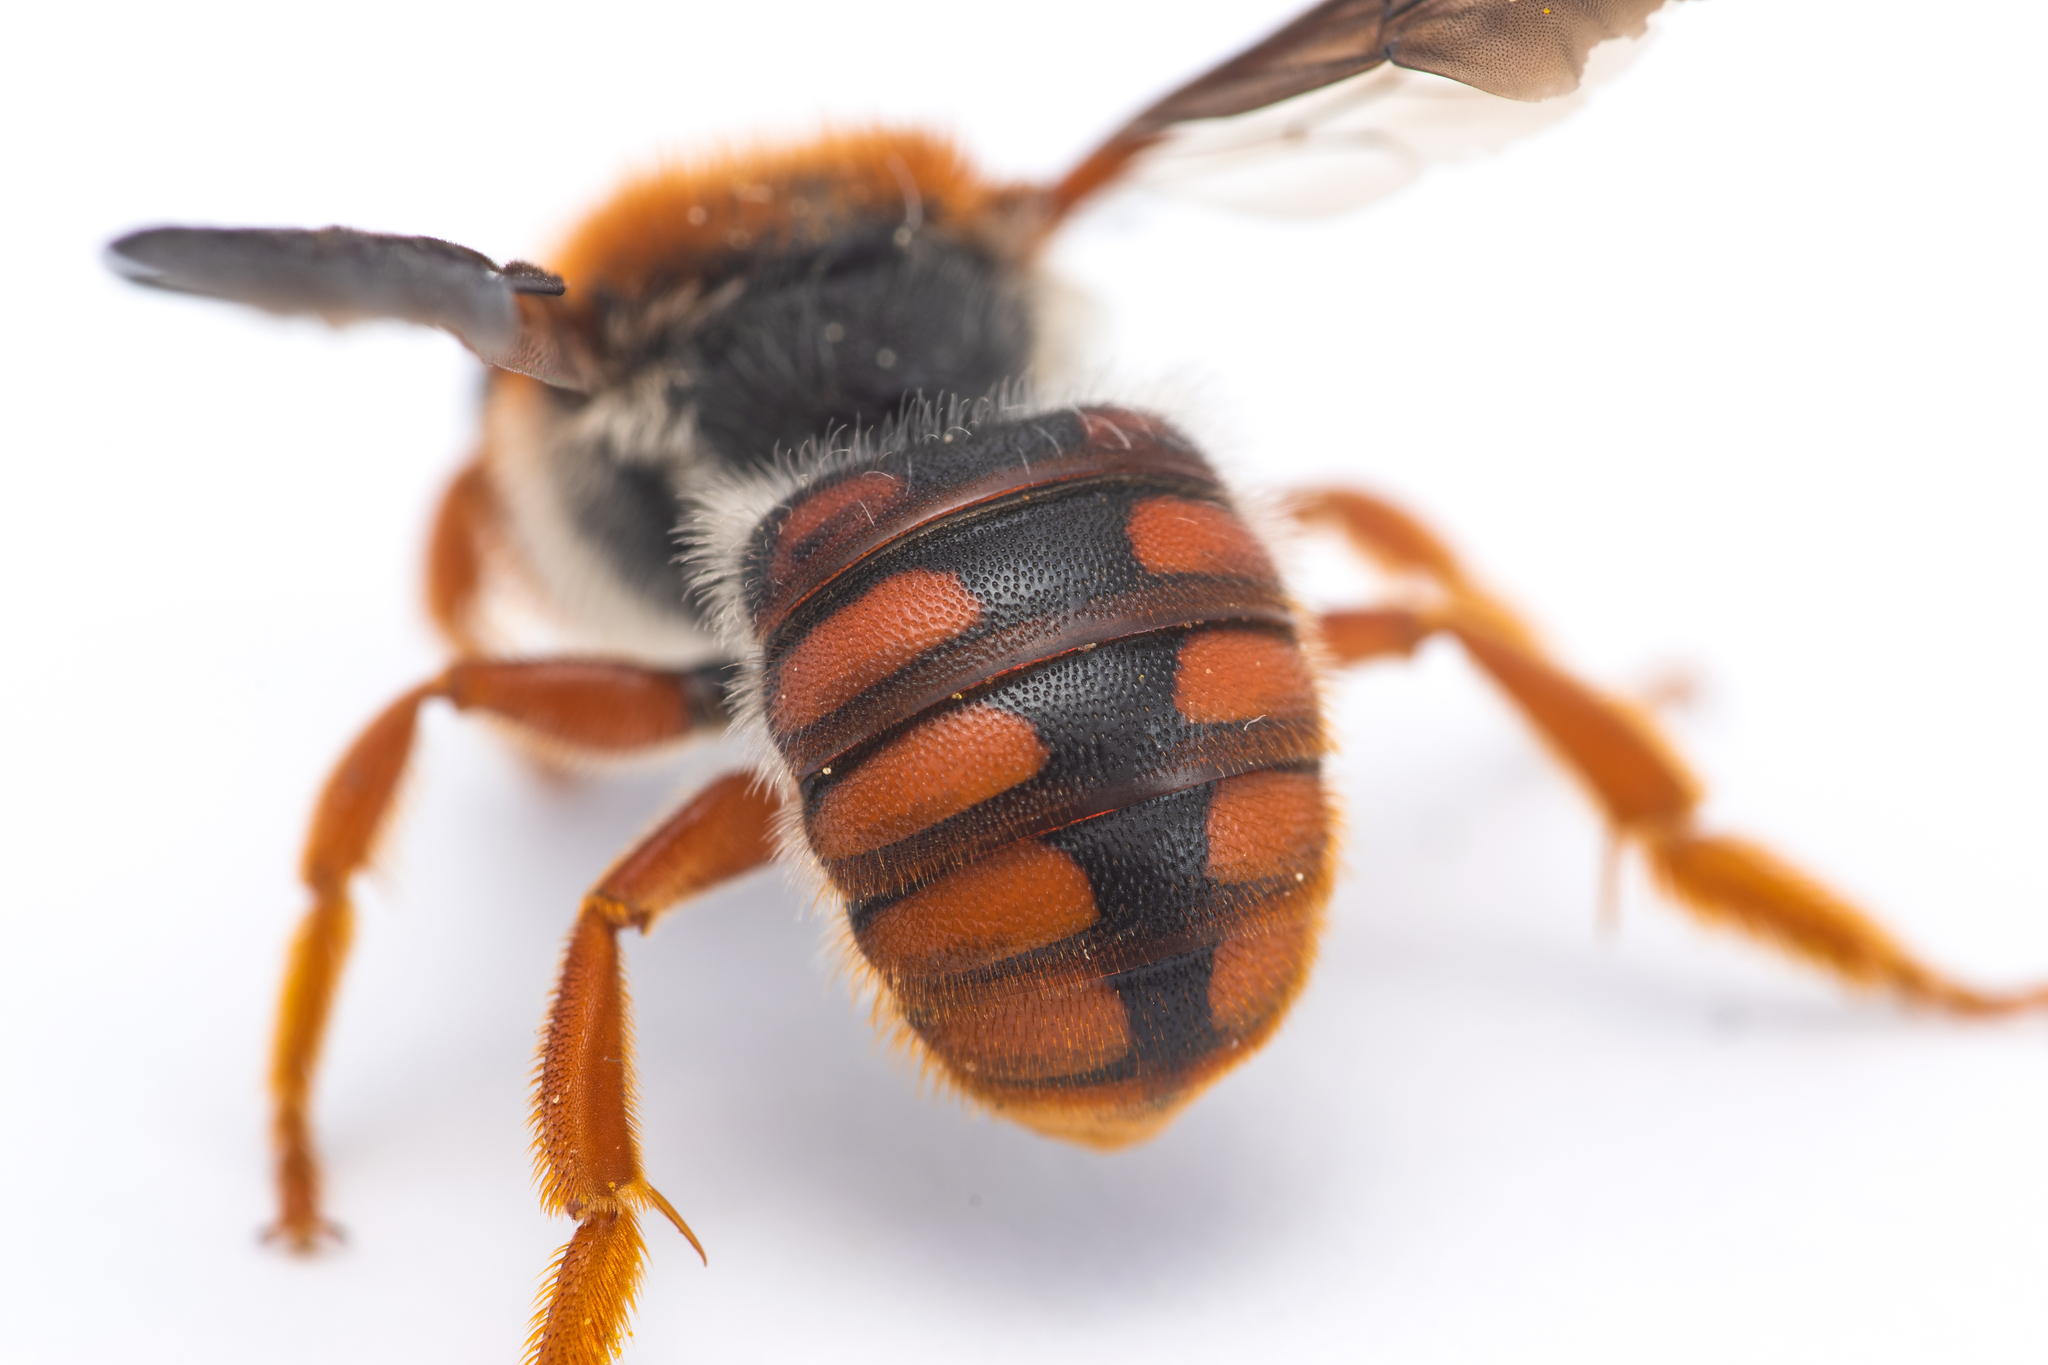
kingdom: Animalia
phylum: Arthropoda
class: Insecta
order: Hymenoptera
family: Megachilidae
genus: Rhodanthidium
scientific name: Rhodanthidium sticticum
